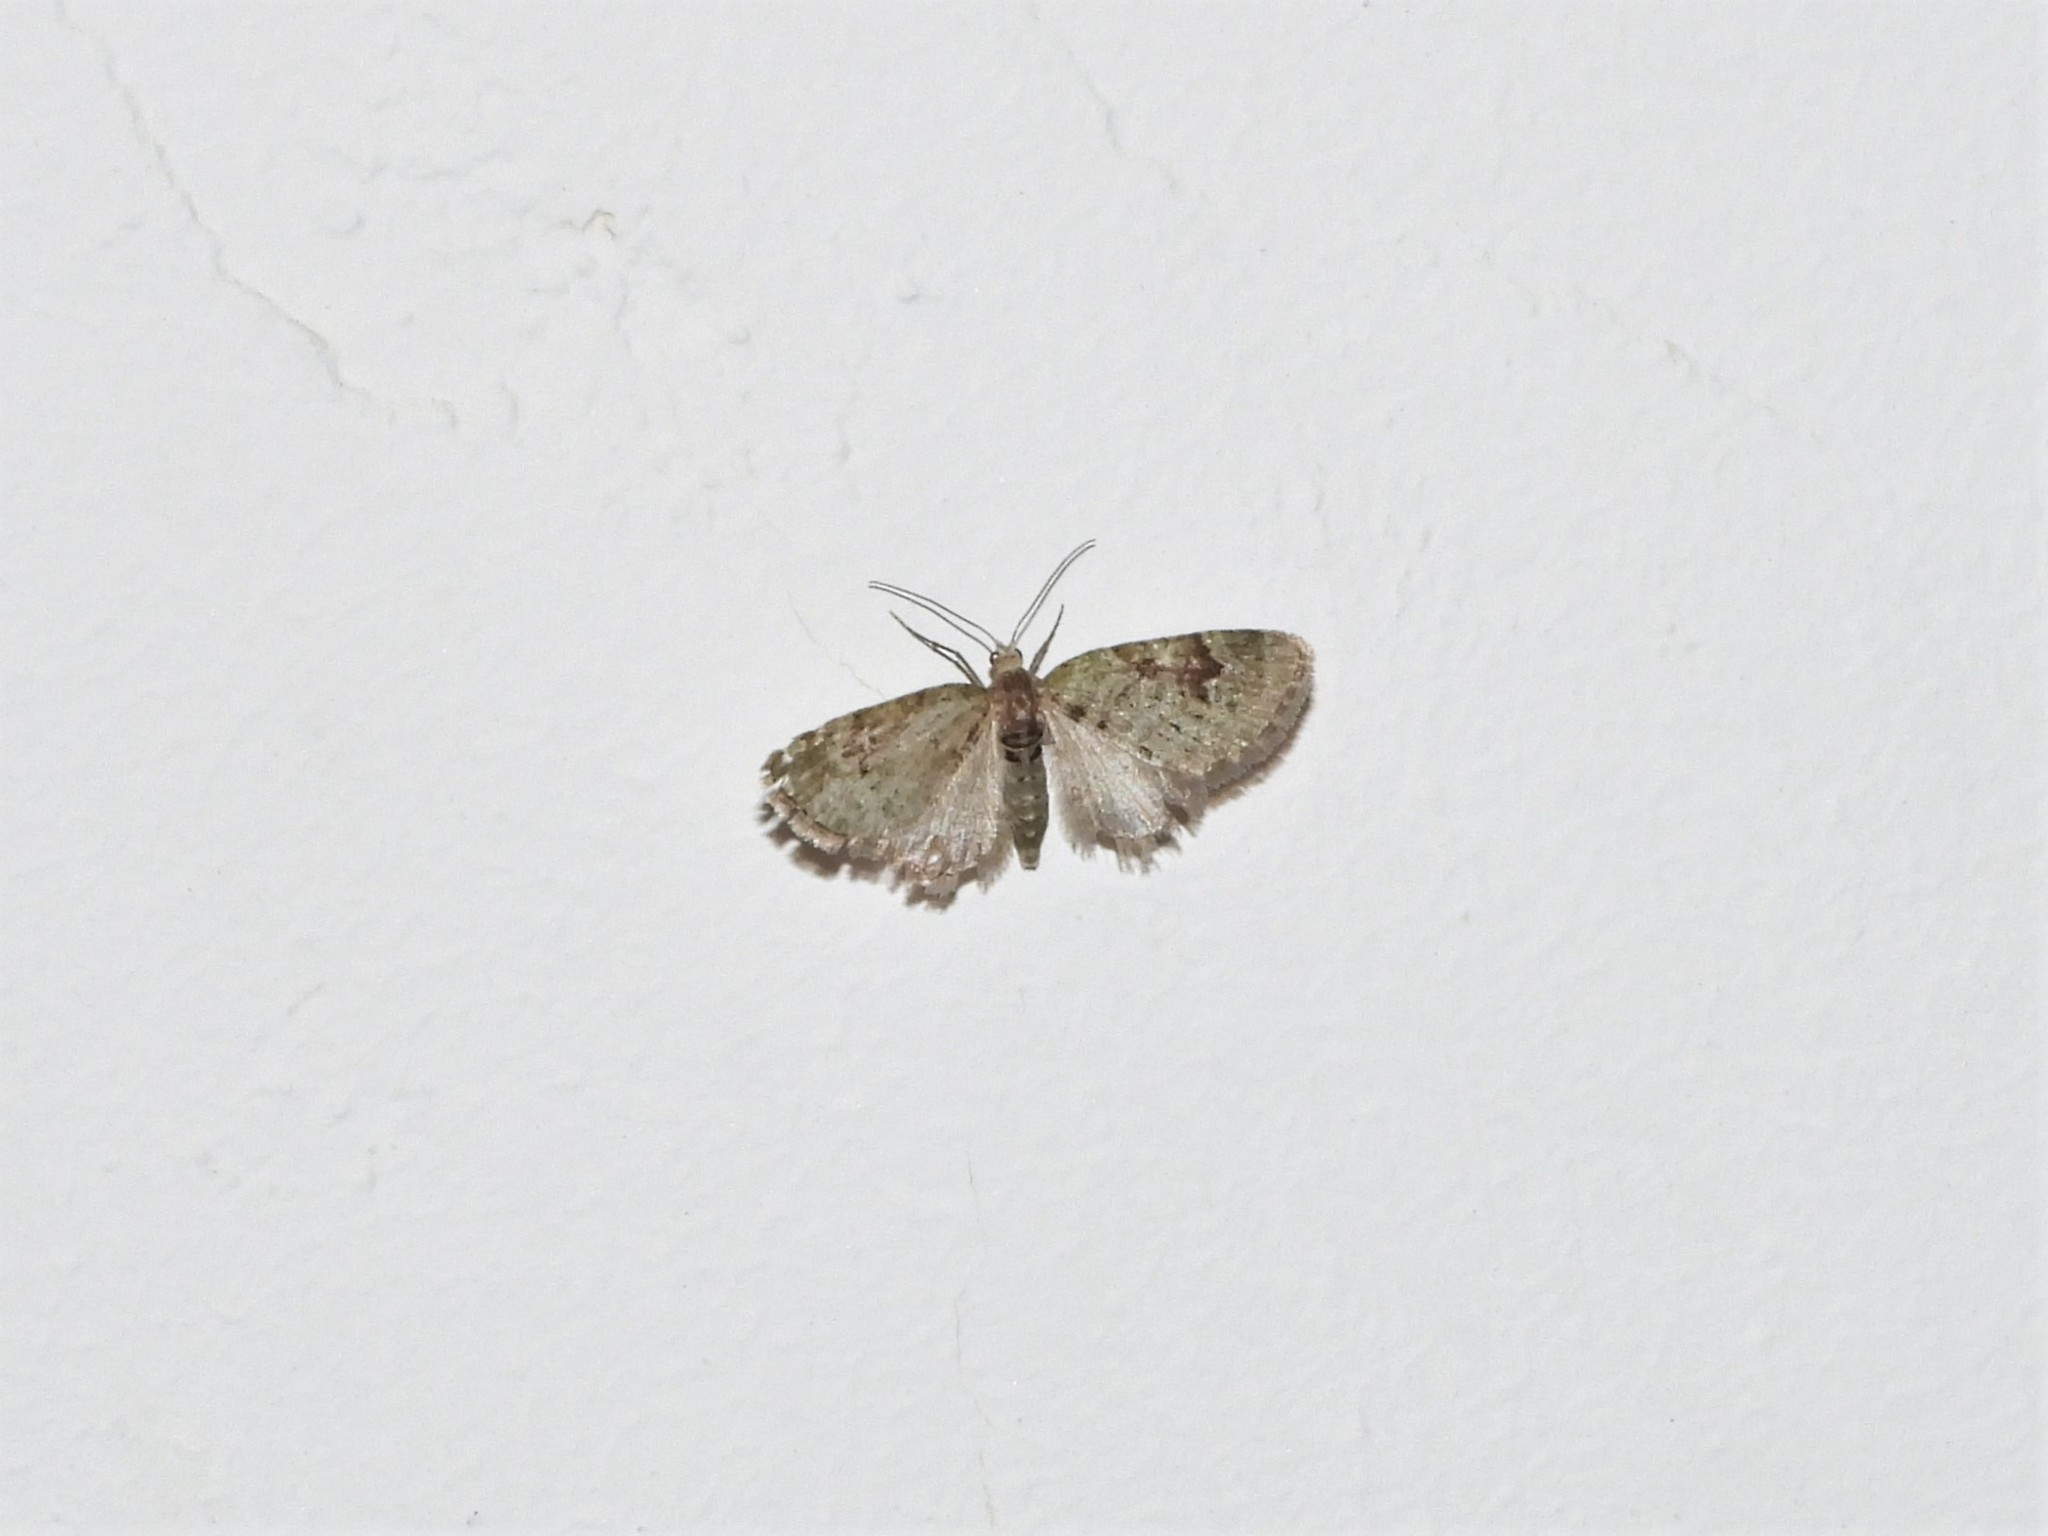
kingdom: Animalia
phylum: Arthropoda
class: Insecta
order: Lepidoptera
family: Geometridae
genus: Chloroclystis
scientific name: Chloroclystis v-ata
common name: V-pug
